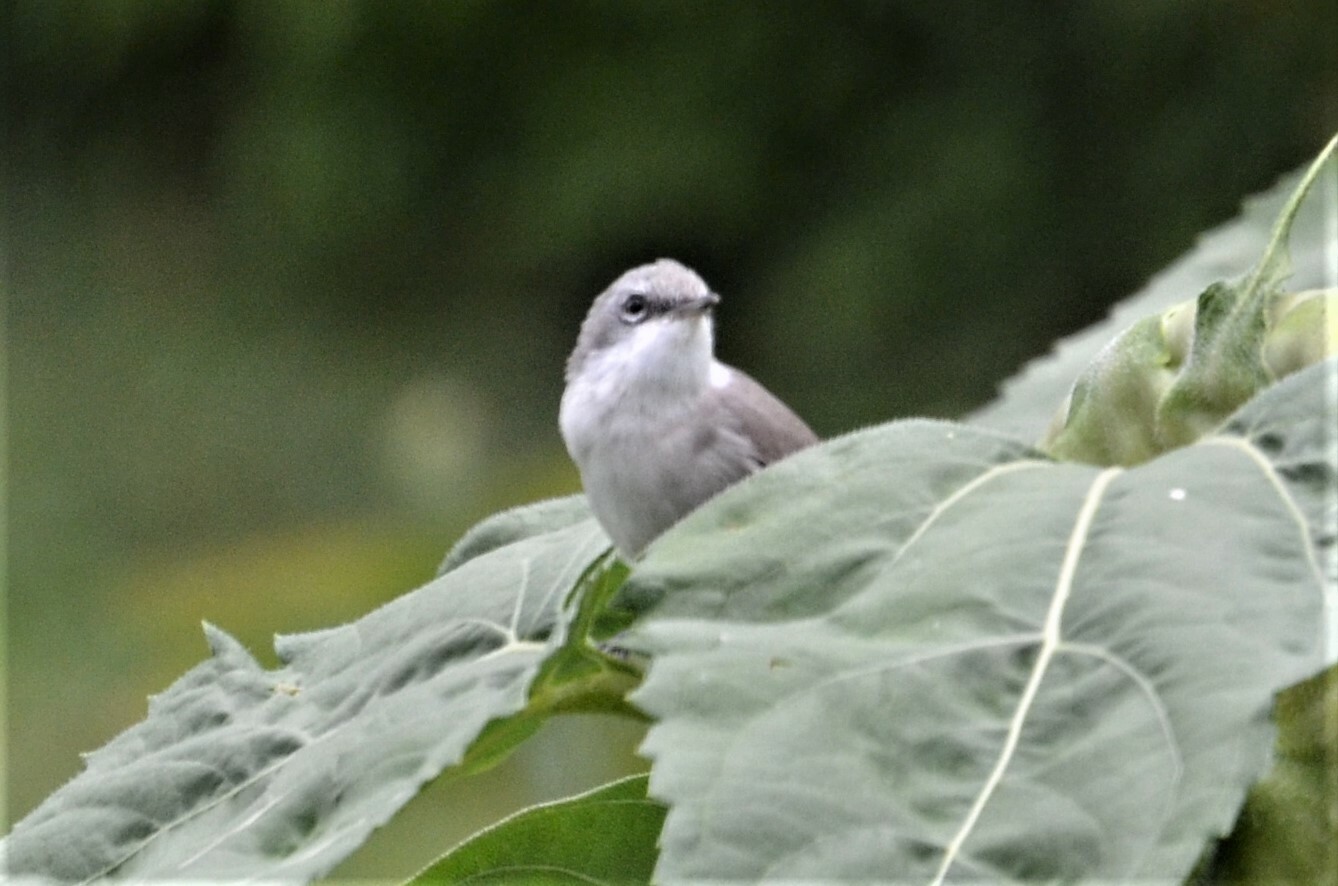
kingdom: Animalia
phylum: Chordata
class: Aves
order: Passeriformes
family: Sylviidae
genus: Sylvia
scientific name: Sylvia curruca
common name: Lesser whitethroat
